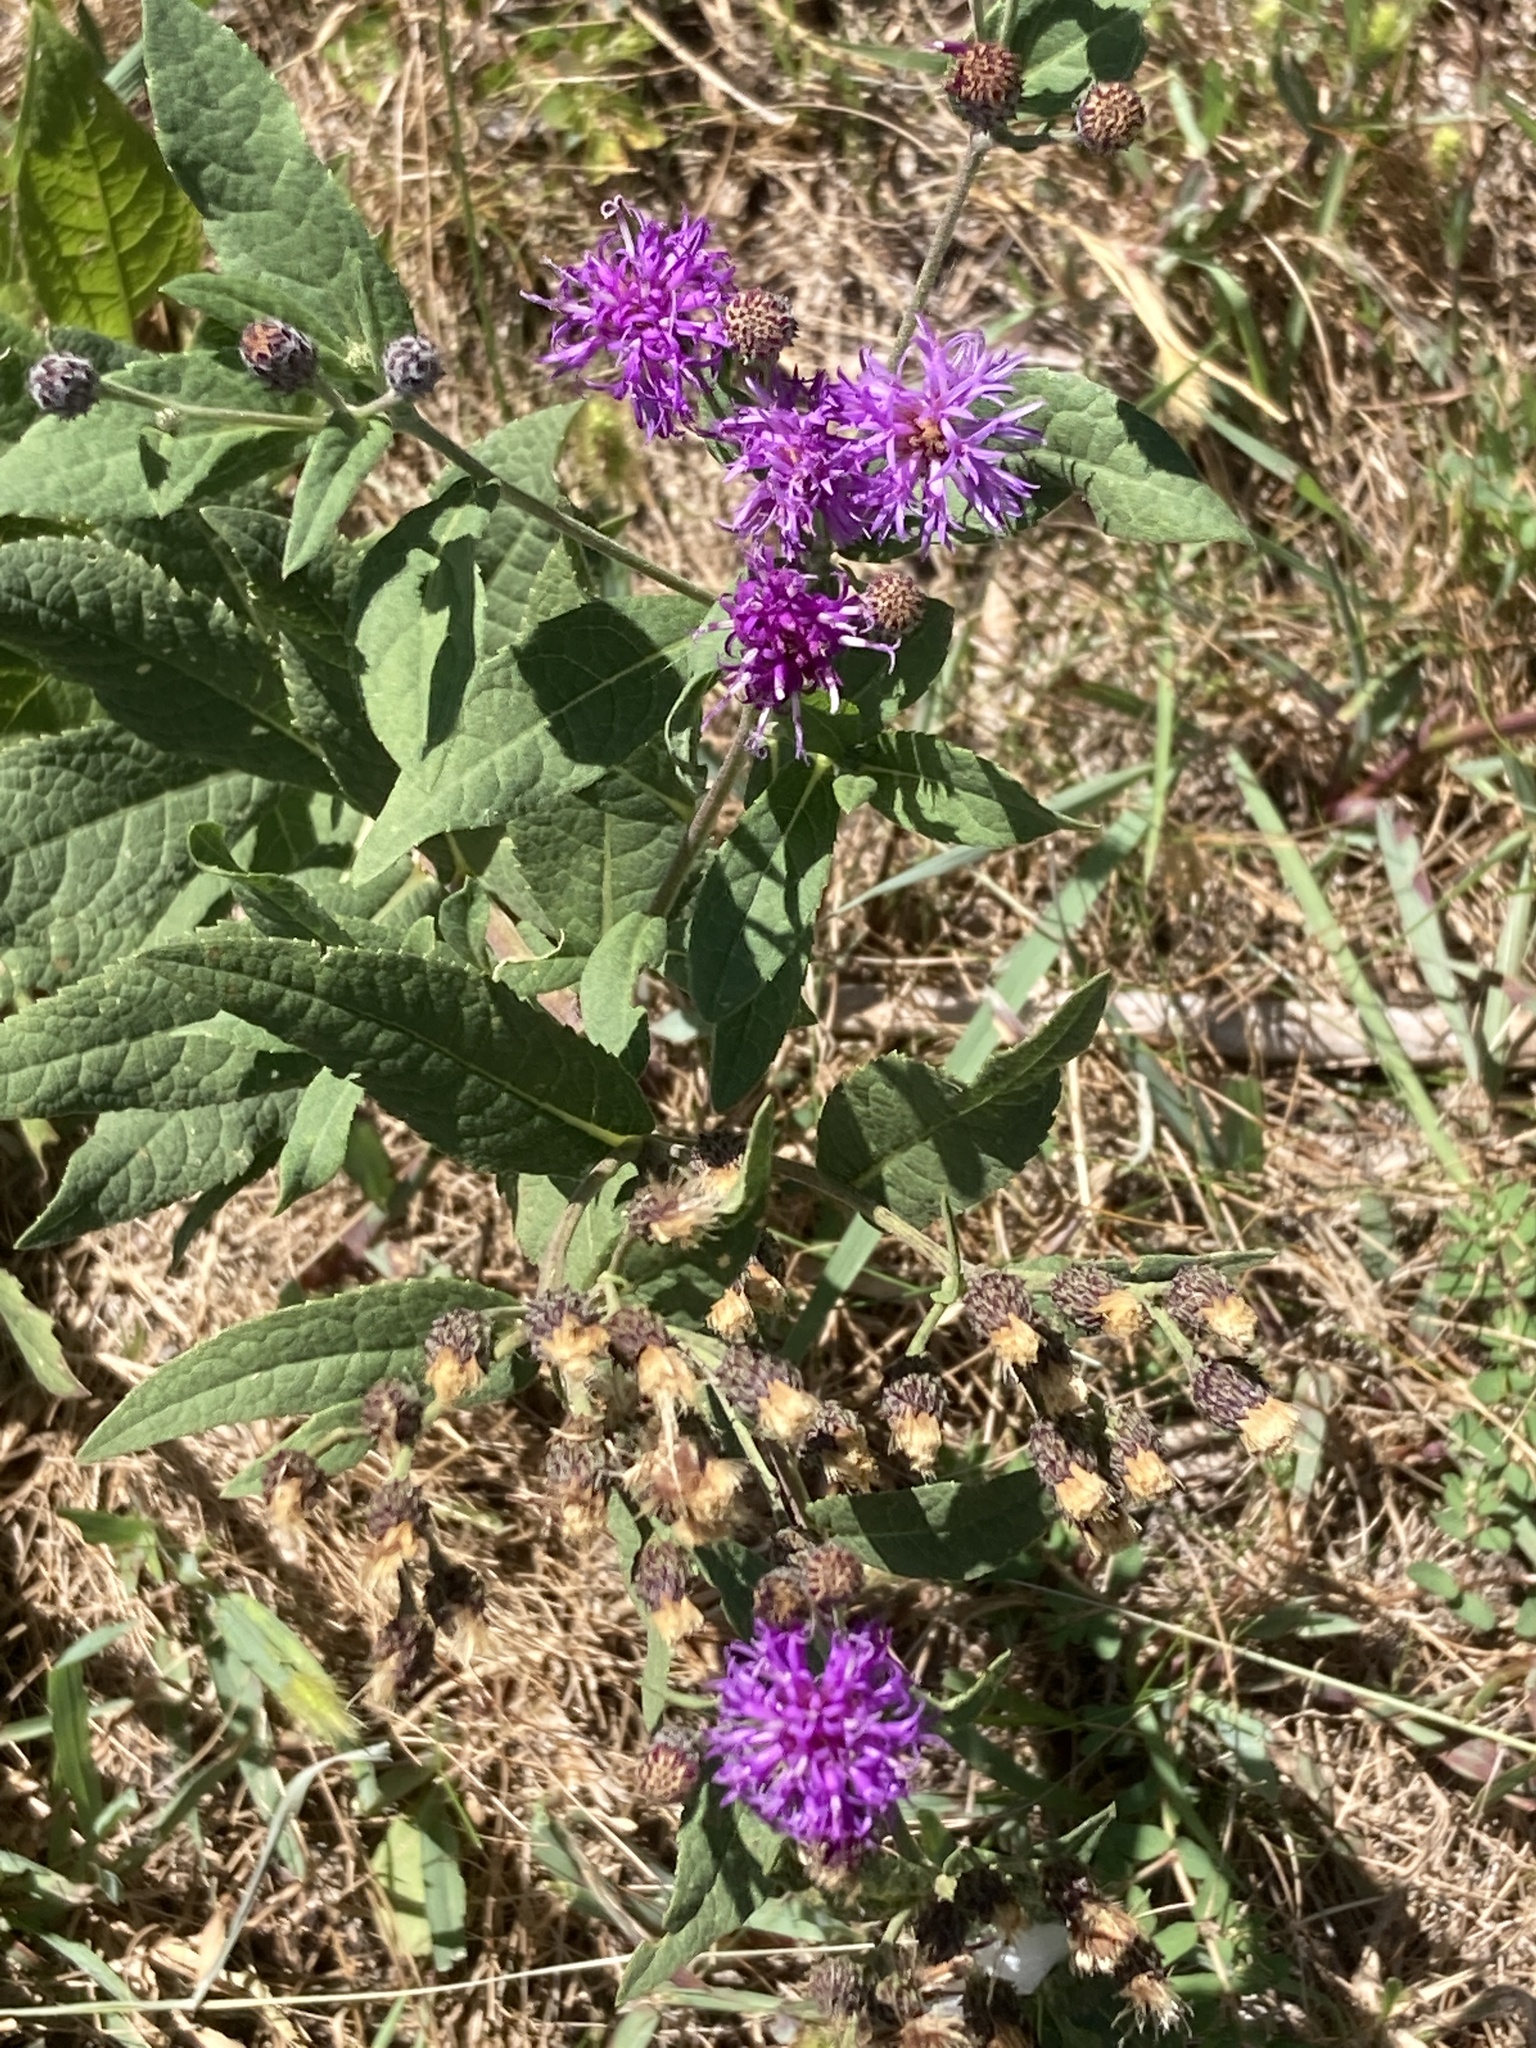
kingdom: Plantae
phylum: Tracheophyta
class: Magnoliopsida
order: Asterales
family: Asteraceae
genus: Vernonia
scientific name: Vernonia baldwinii
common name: Western ironweed
